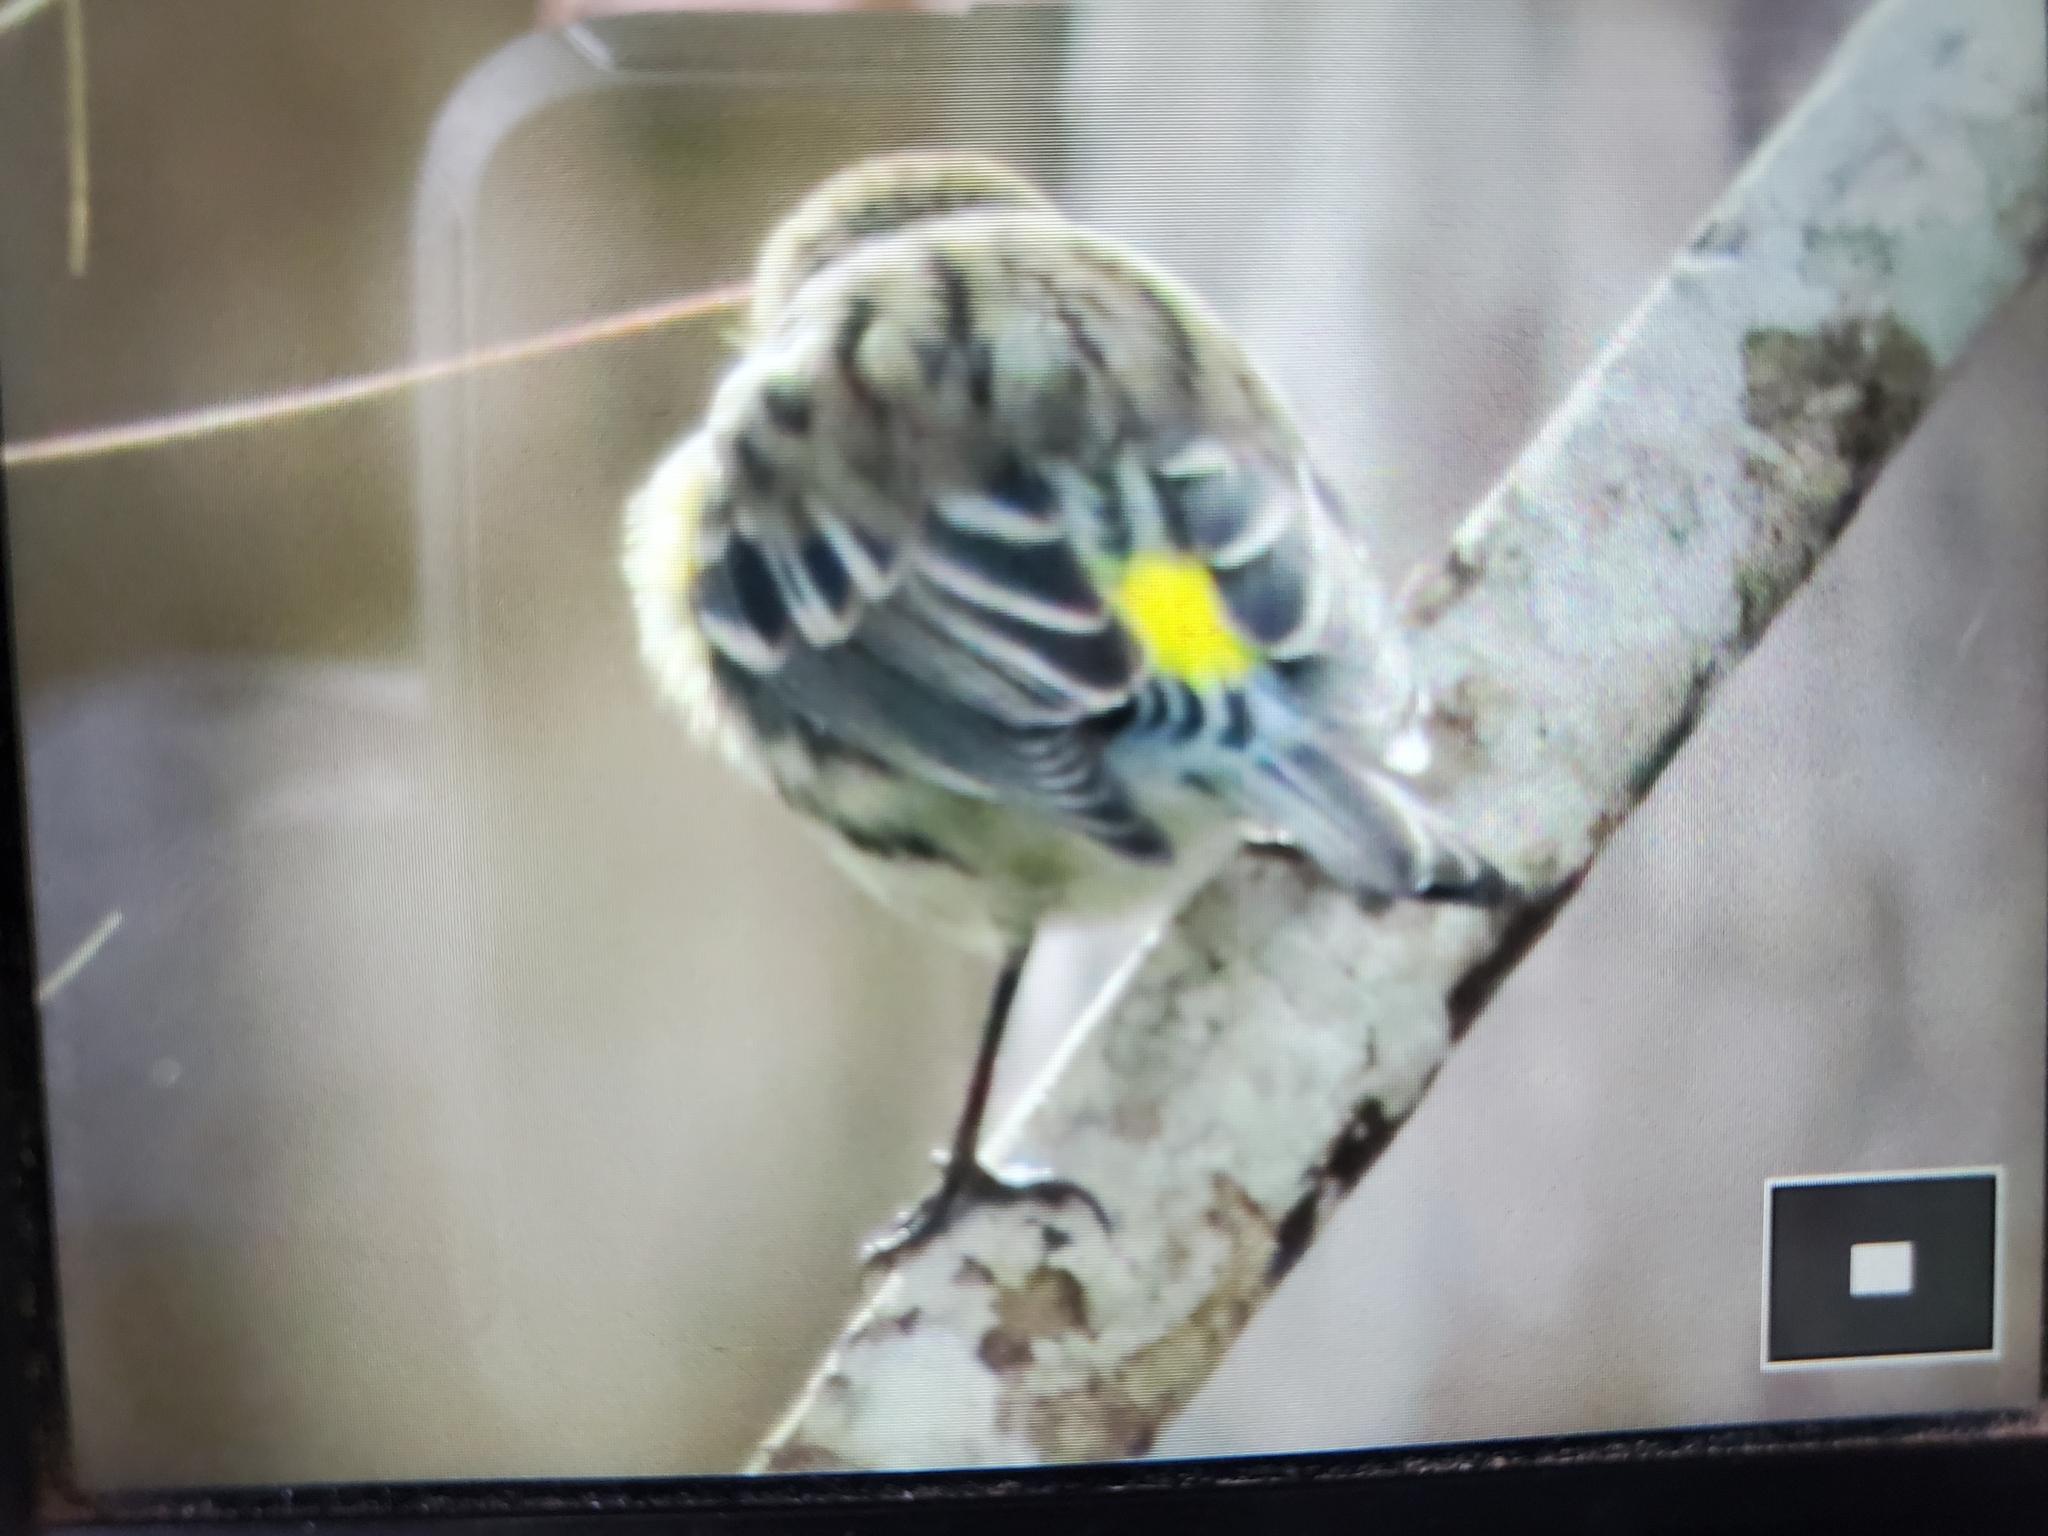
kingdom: Animalia
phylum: Chordata
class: Aves
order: Passeriformes
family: Parulidae
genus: Setophaga
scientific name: Setophaga coronata
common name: Myrtle warbler
